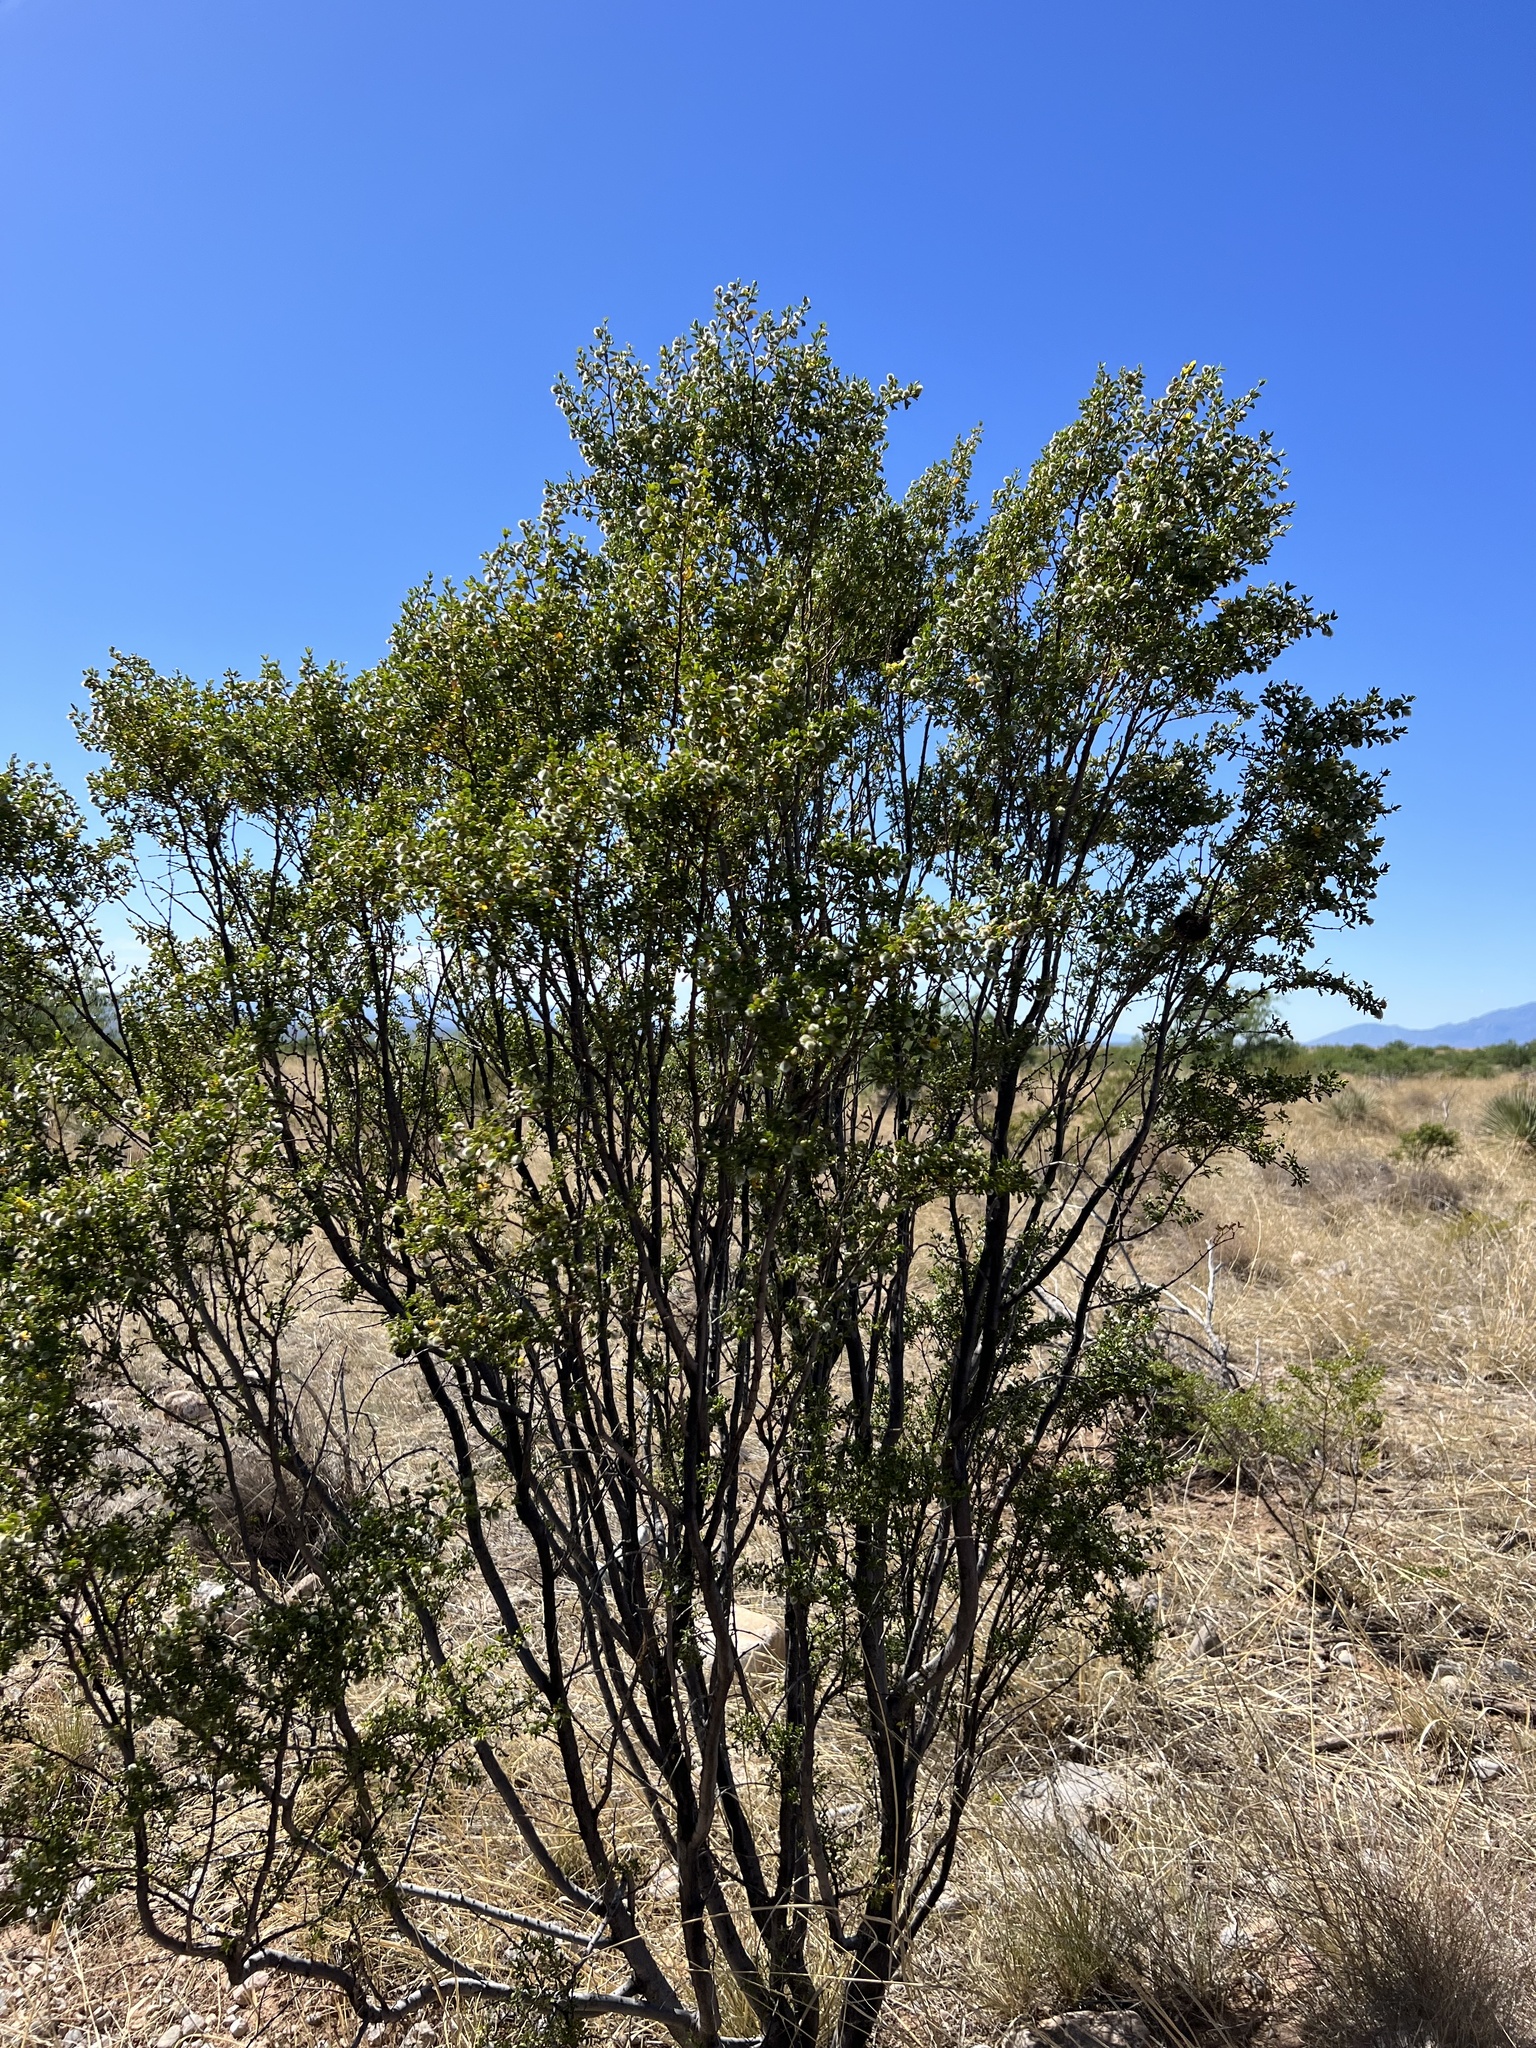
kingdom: Plantae
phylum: Tracheophyta
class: Magnoliopsida
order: Zygophyllales
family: Zygophyllaceae
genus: Larrea
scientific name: Larrea tridentata
